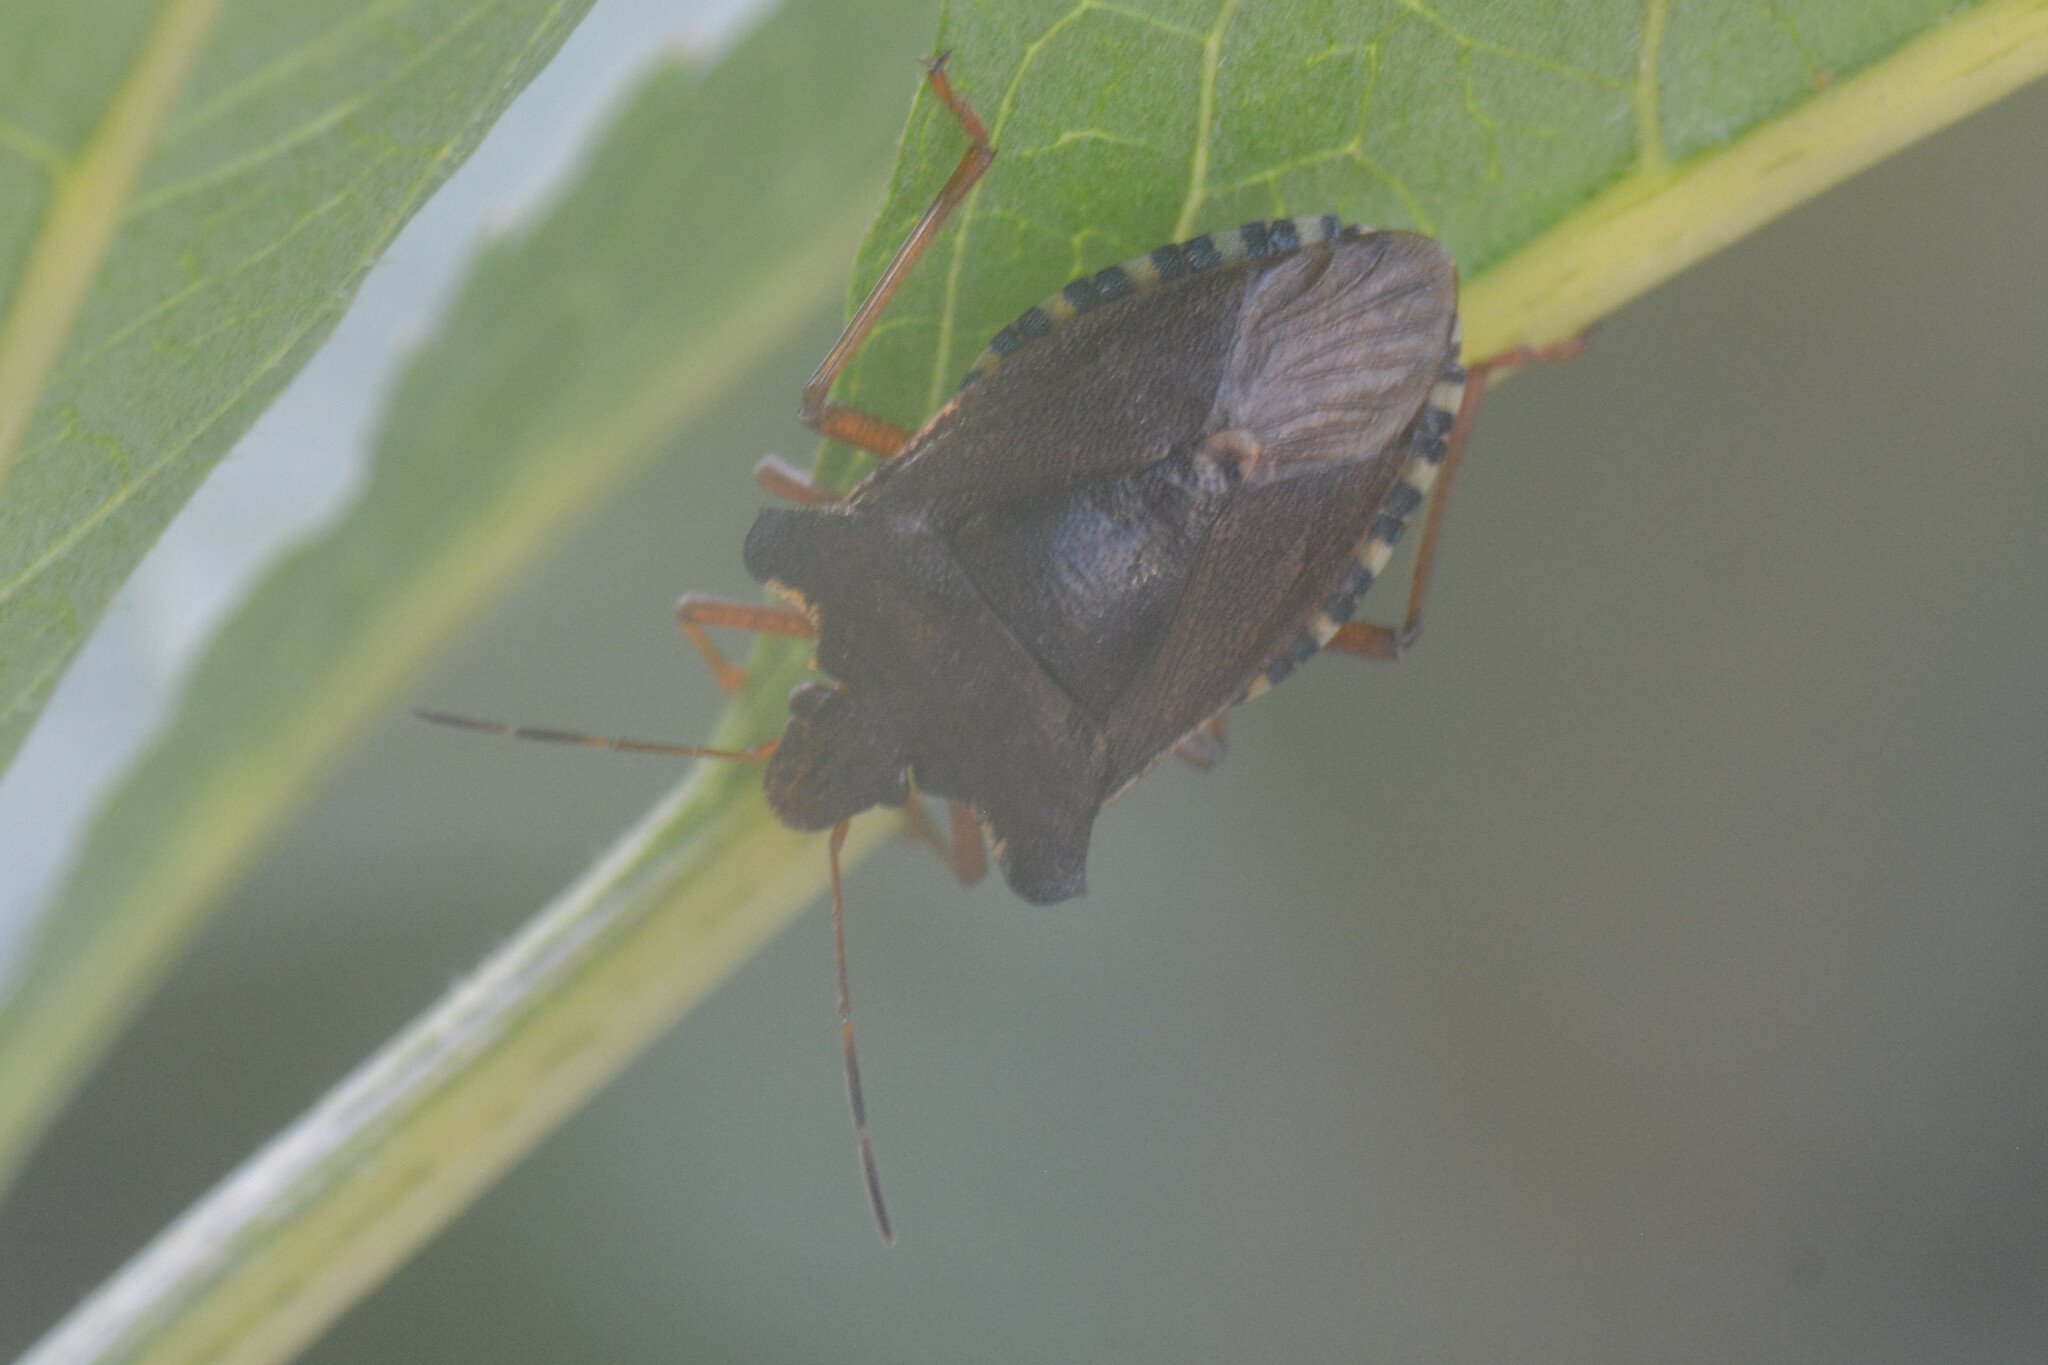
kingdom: Animalia
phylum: Arthropoda
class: Insecta
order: Hemiptera
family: Pentatomidae
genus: Pentatoma
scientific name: Pentatoma rufipes
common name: Forest bug
